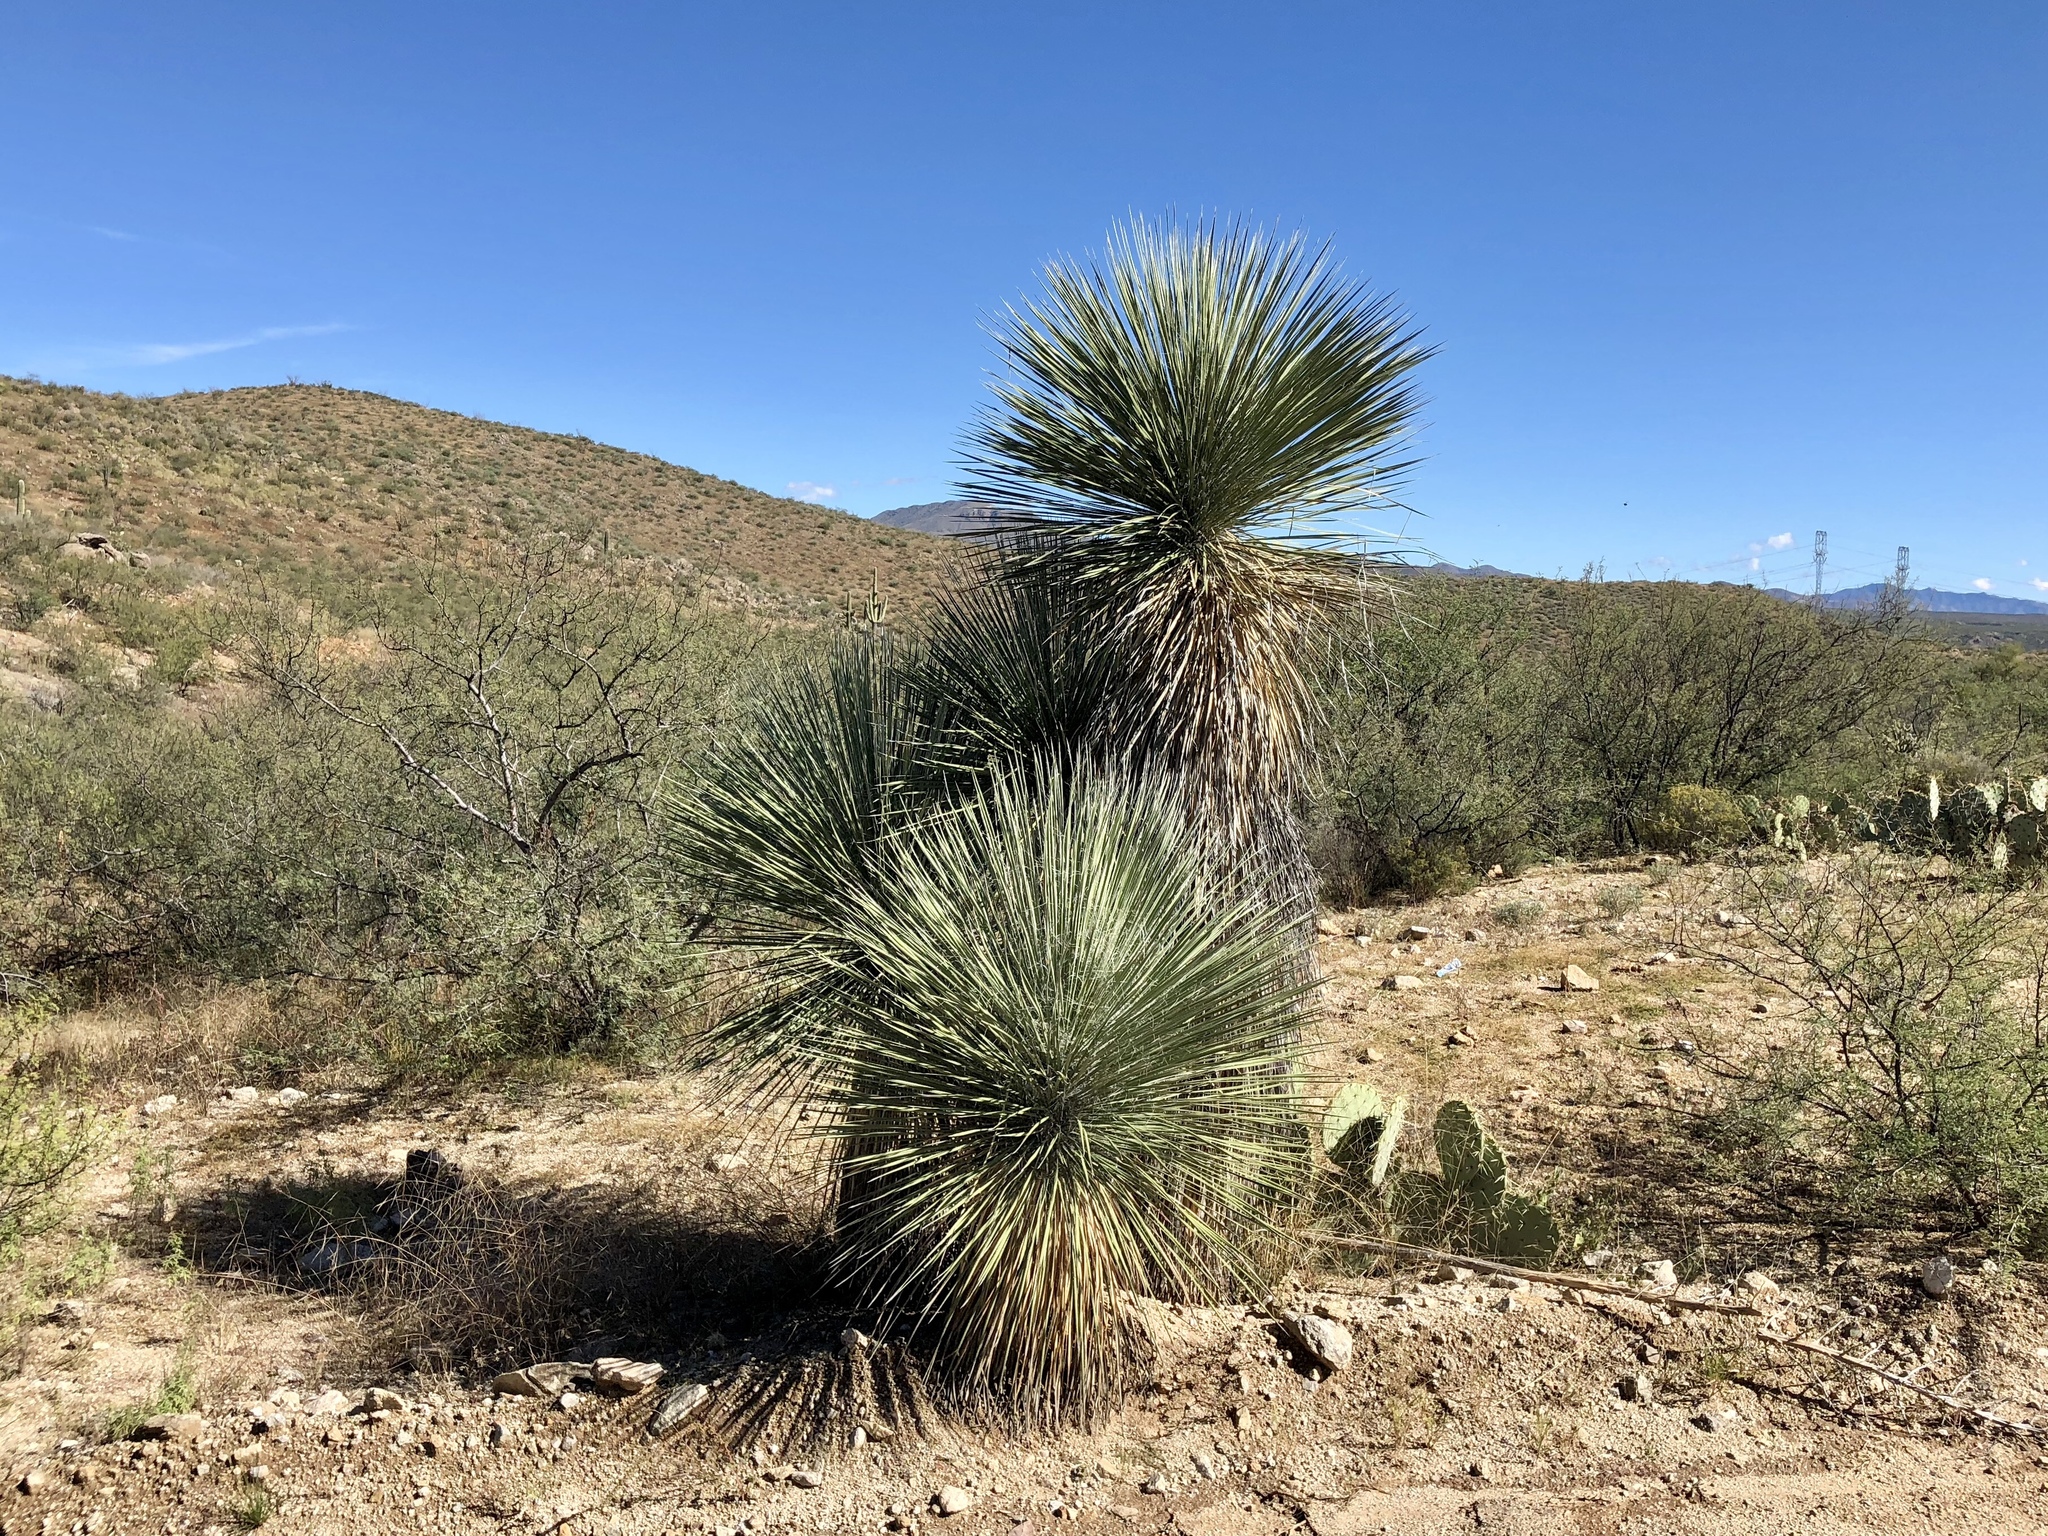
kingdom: Plantae
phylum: Tracheophyta
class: Liliopsida
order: Asparagales
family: Asparagaceae
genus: Yucca
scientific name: Yucca elata
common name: Palmella
